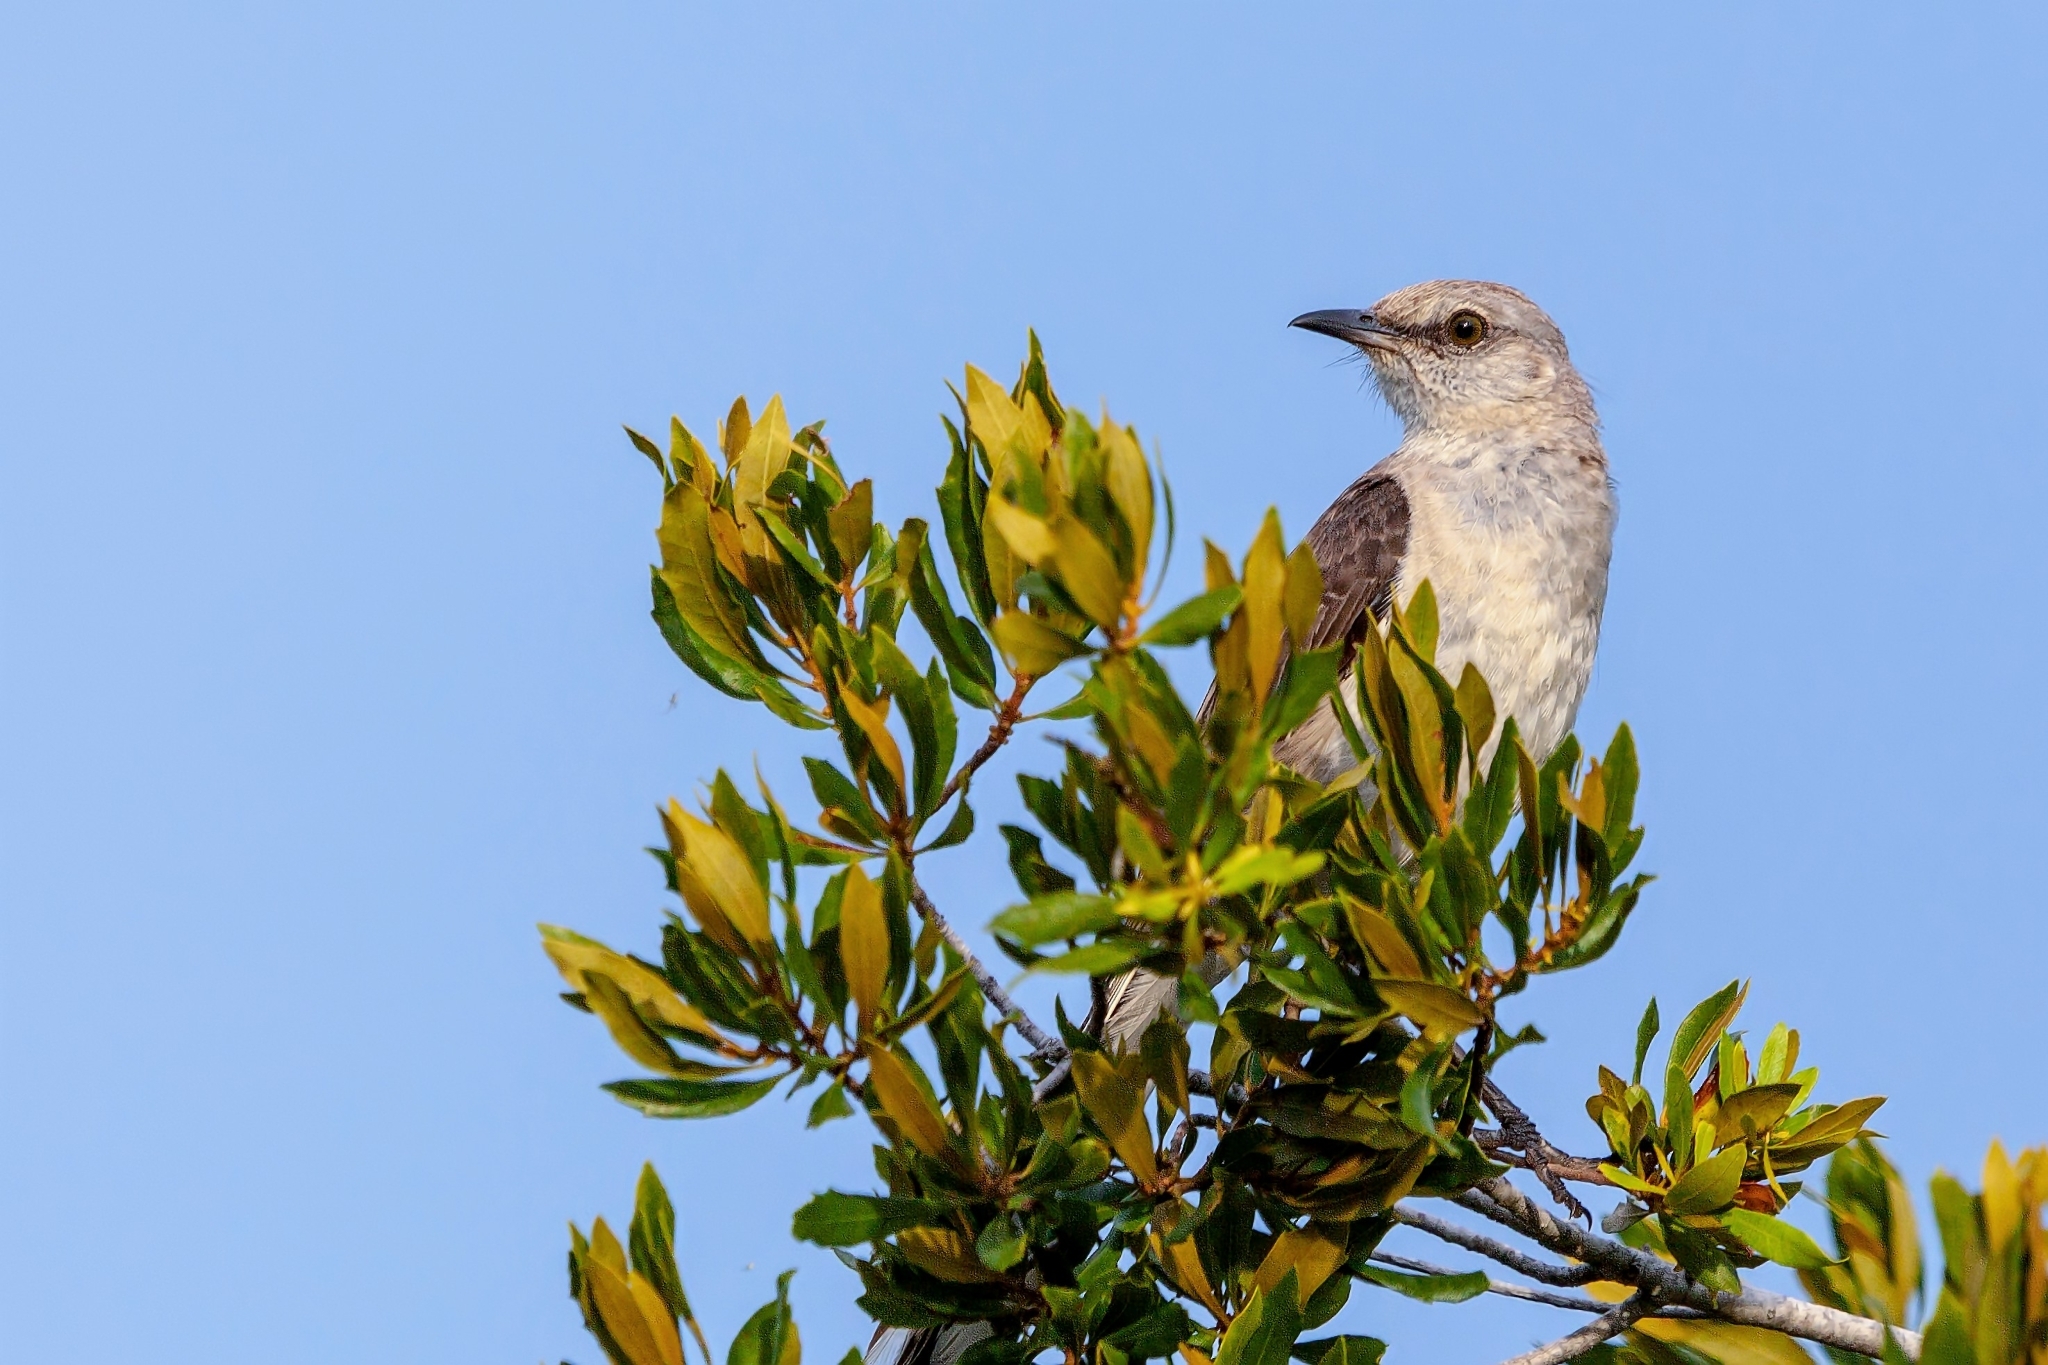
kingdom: Animalia
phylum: Chordata
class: Aves
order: Passeriformes
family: Mimidae
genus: Mimus
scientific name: Mimus polyglottos
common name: Northern mockingbird
